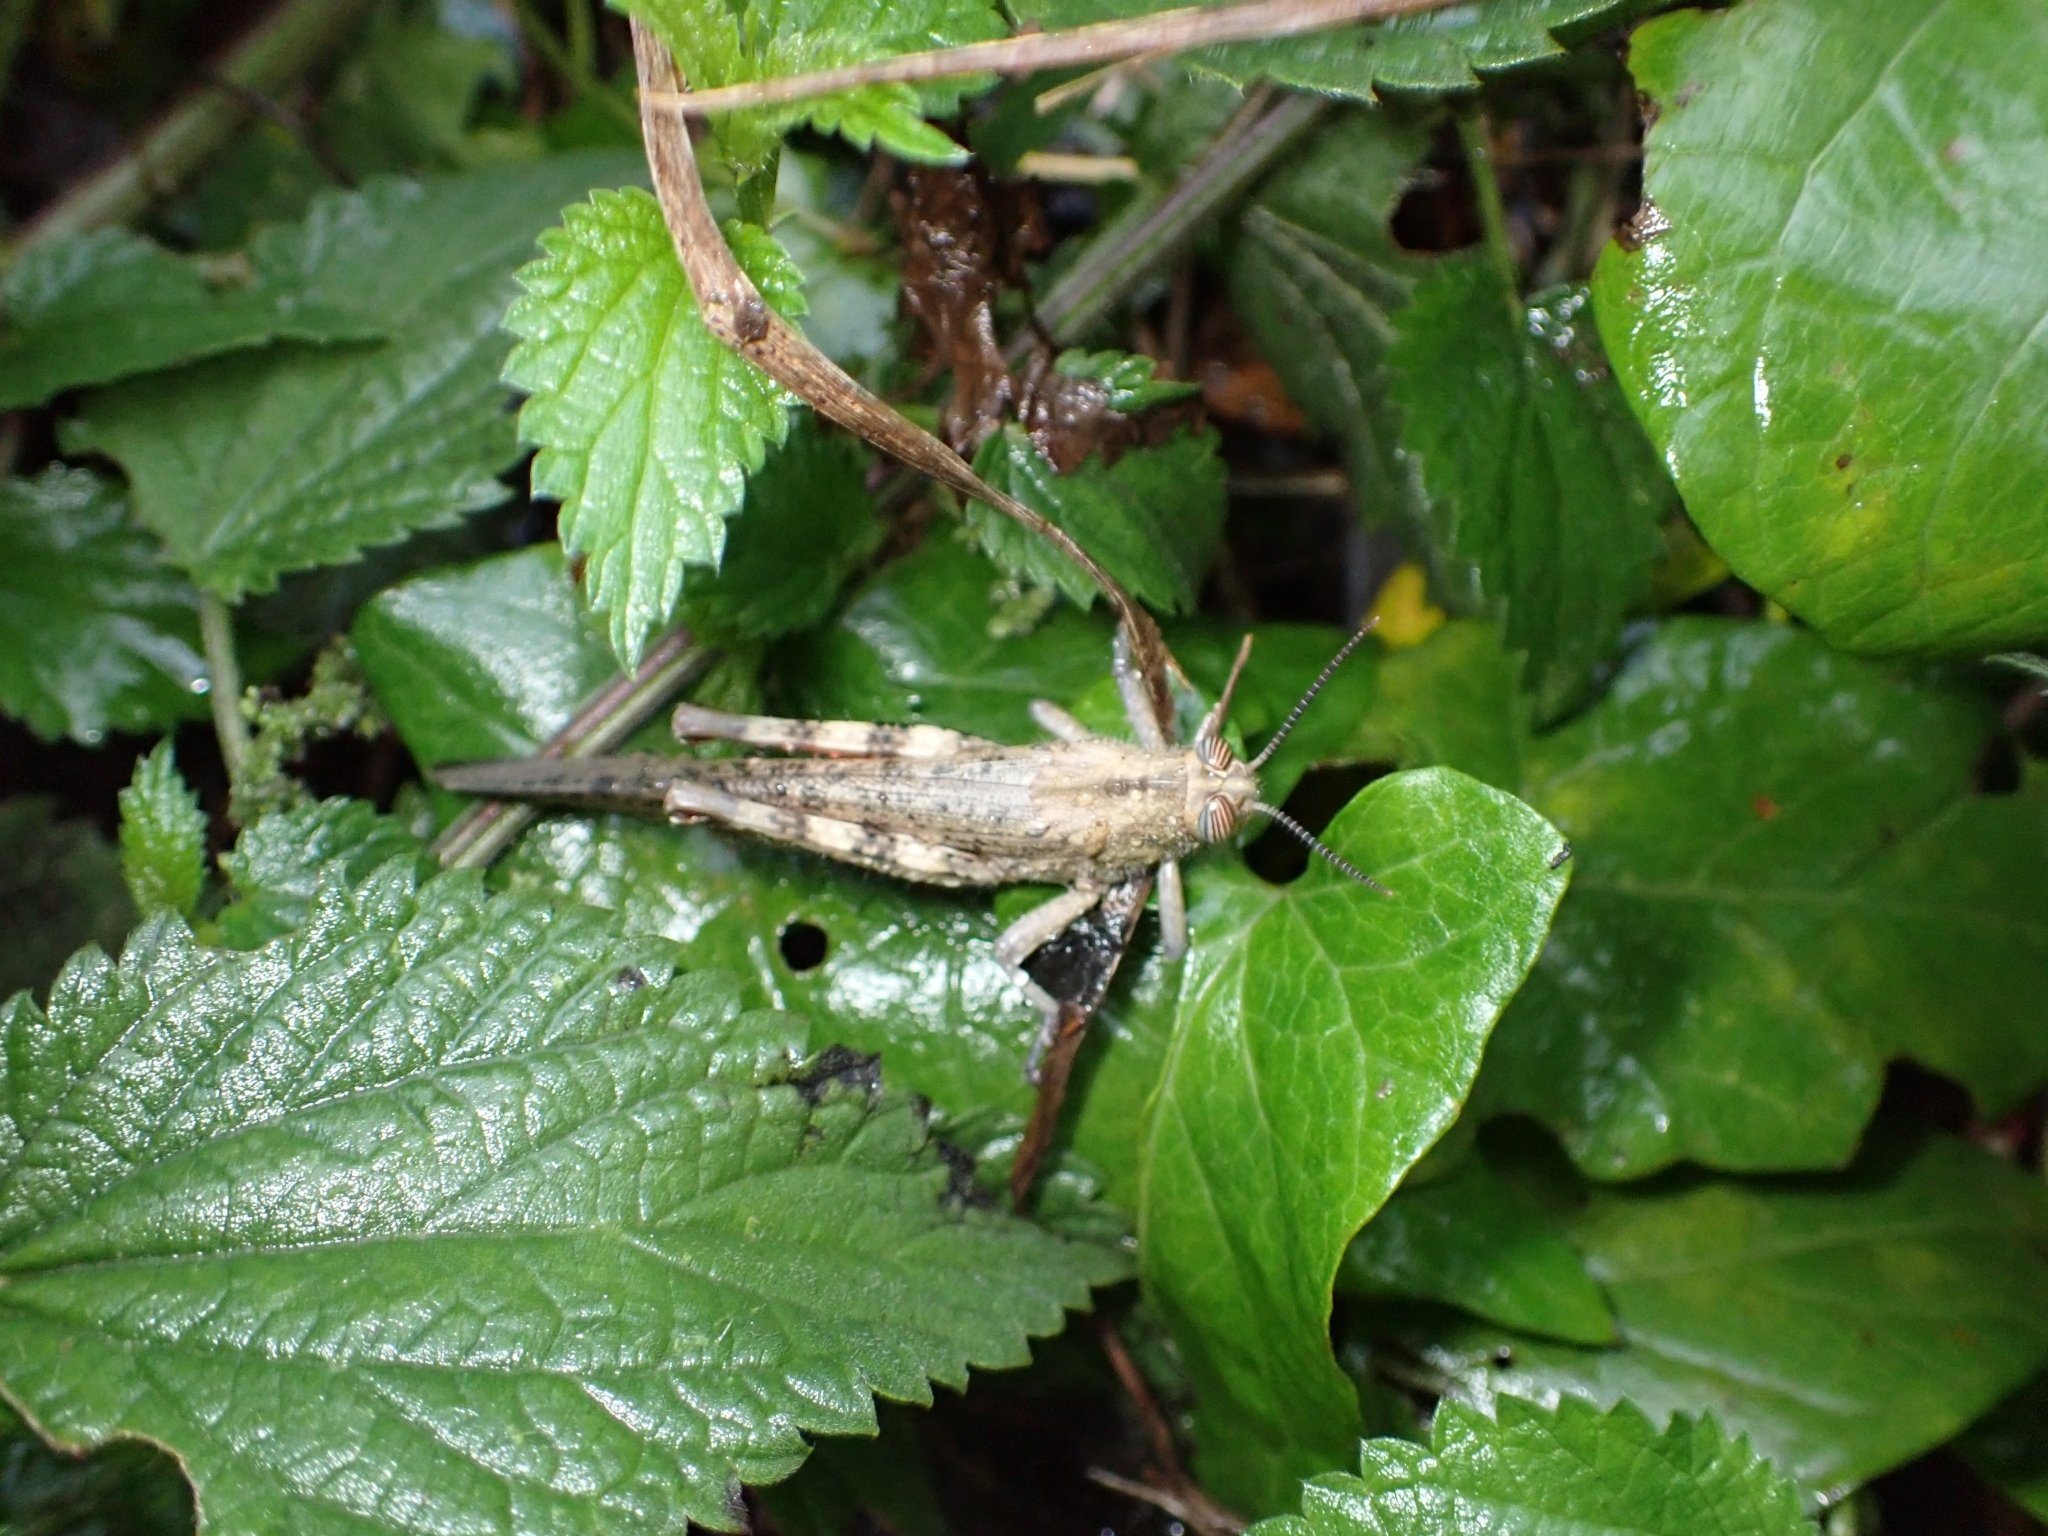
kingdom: Animalia
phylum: Arthropoda
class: Insecta
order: Orthoptera
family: Acrididae
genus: Anacridium
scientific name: Anacridium aegyptium
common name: Egyptian grasshopper
